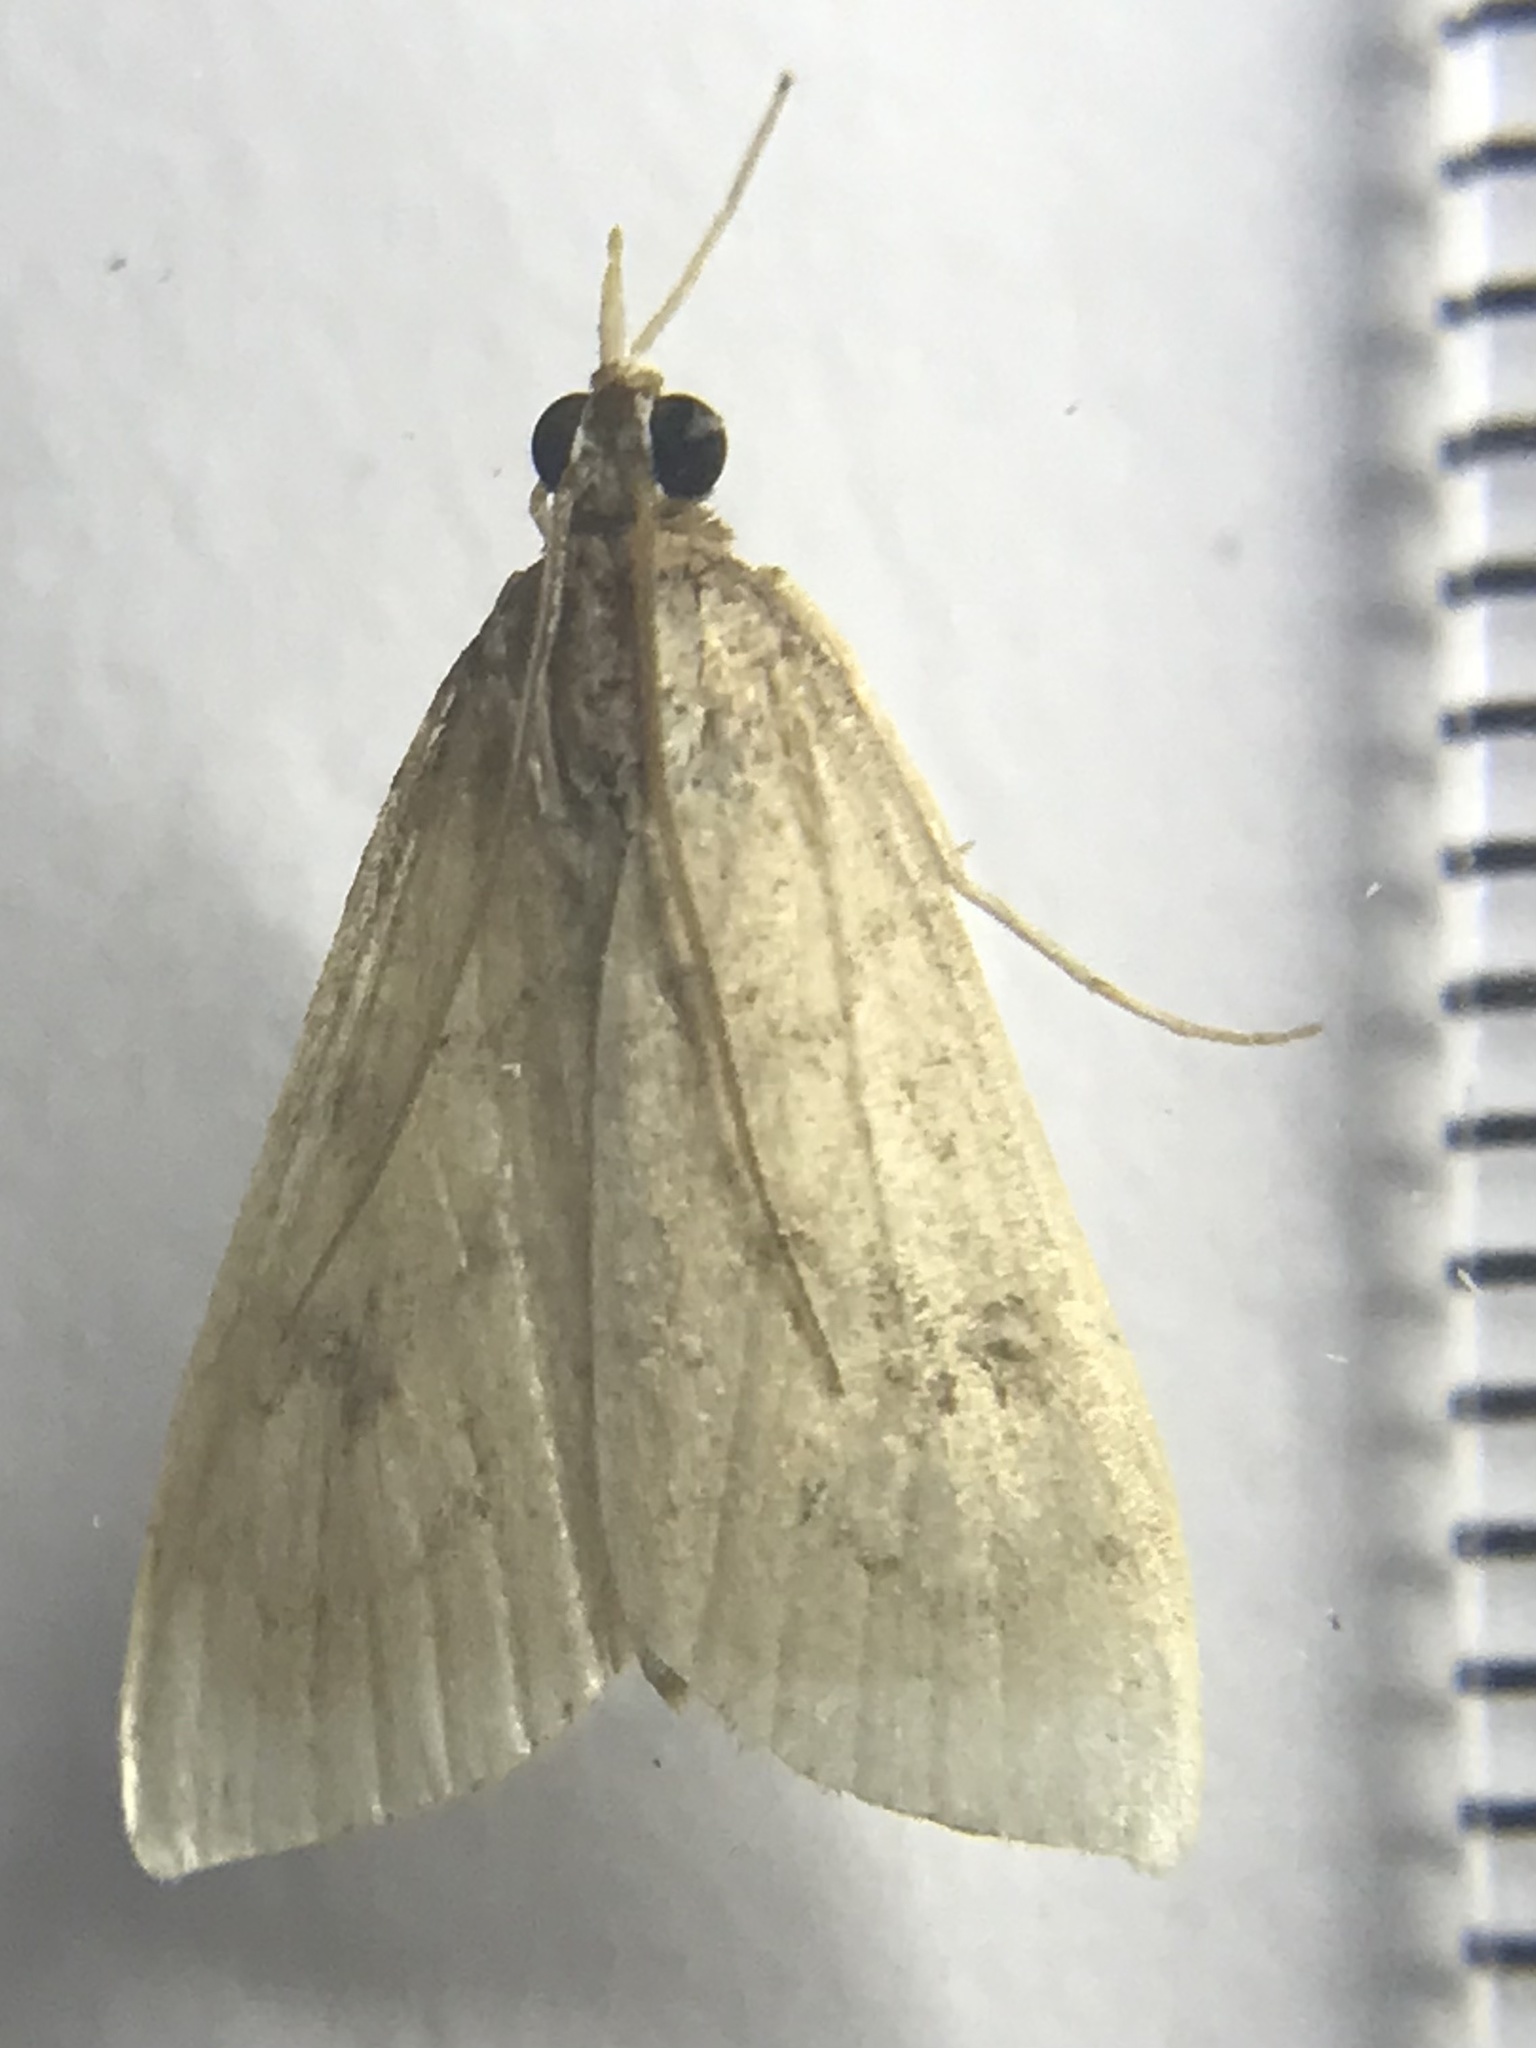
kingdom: Animalia
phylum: Arthropoda
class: Insecta
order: Lepidoptera
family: Crambidae
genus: Udea
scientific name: Udea rubigalis
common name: Celery leaftier moth
